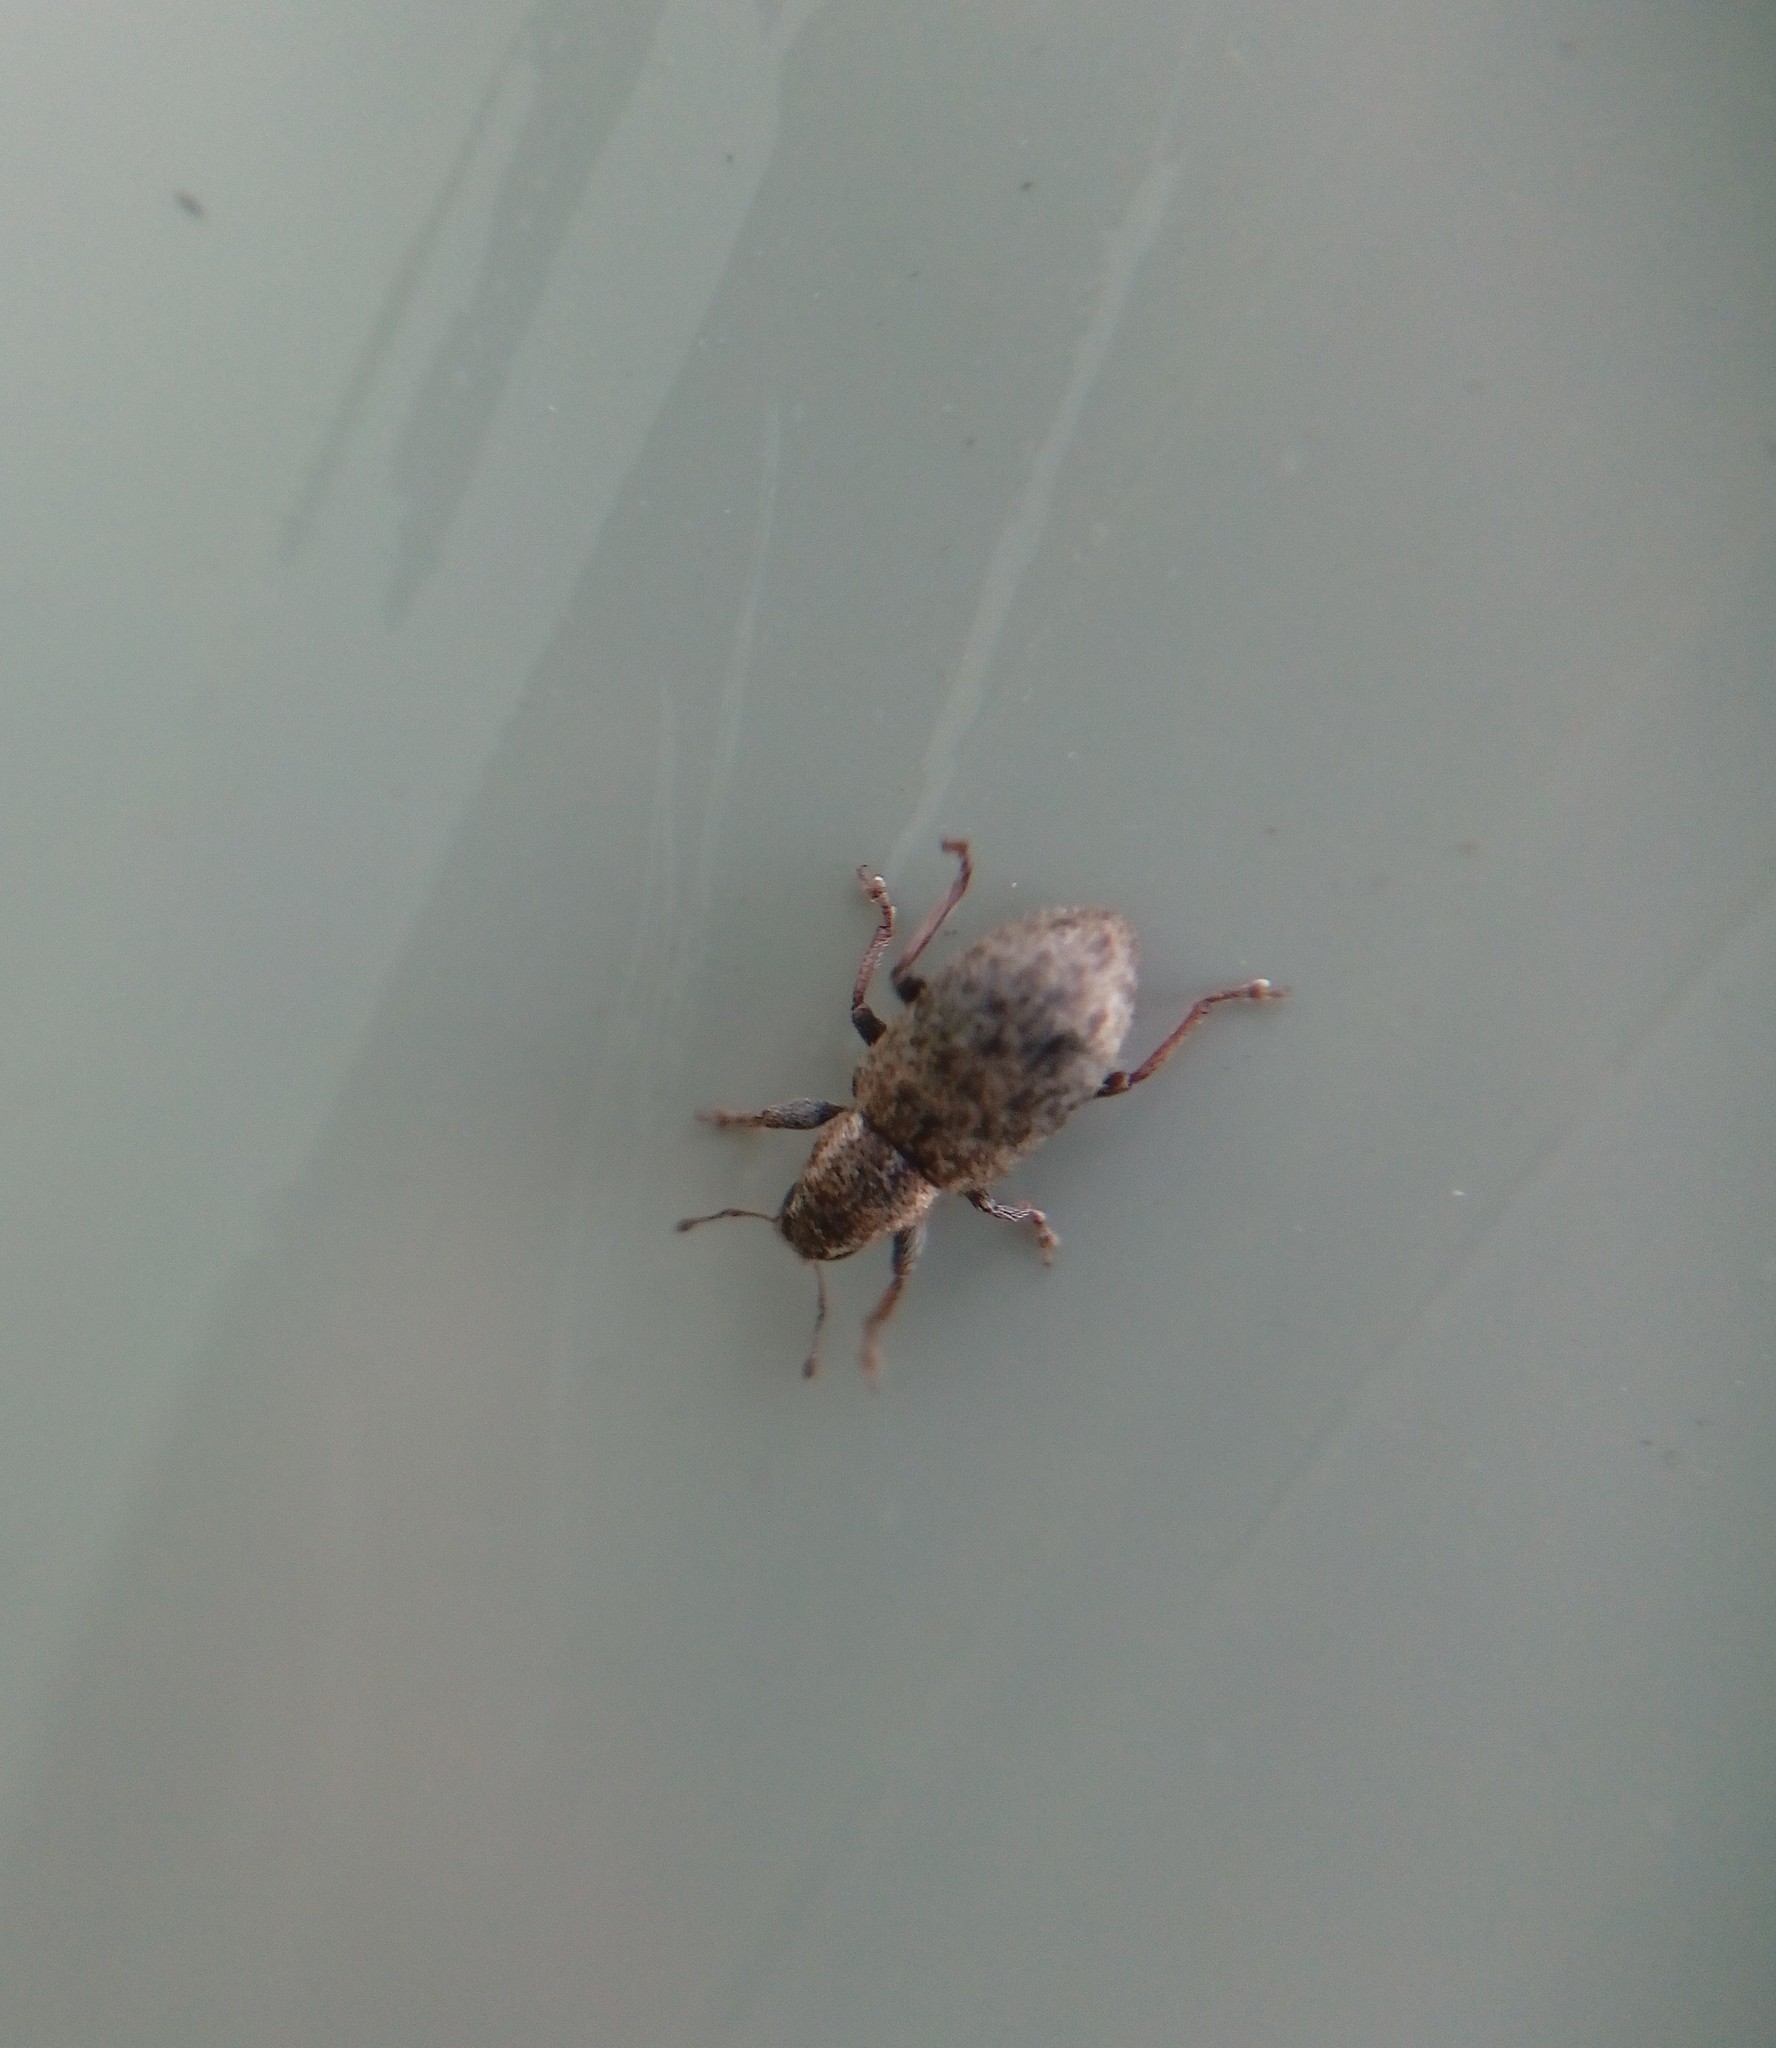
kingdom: Animalia
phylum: Arthropoda
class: Insecta
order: Coleoptera
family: Curculionidae
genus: Sitona
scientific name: Sitona hispidulus
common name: Clover weevil
